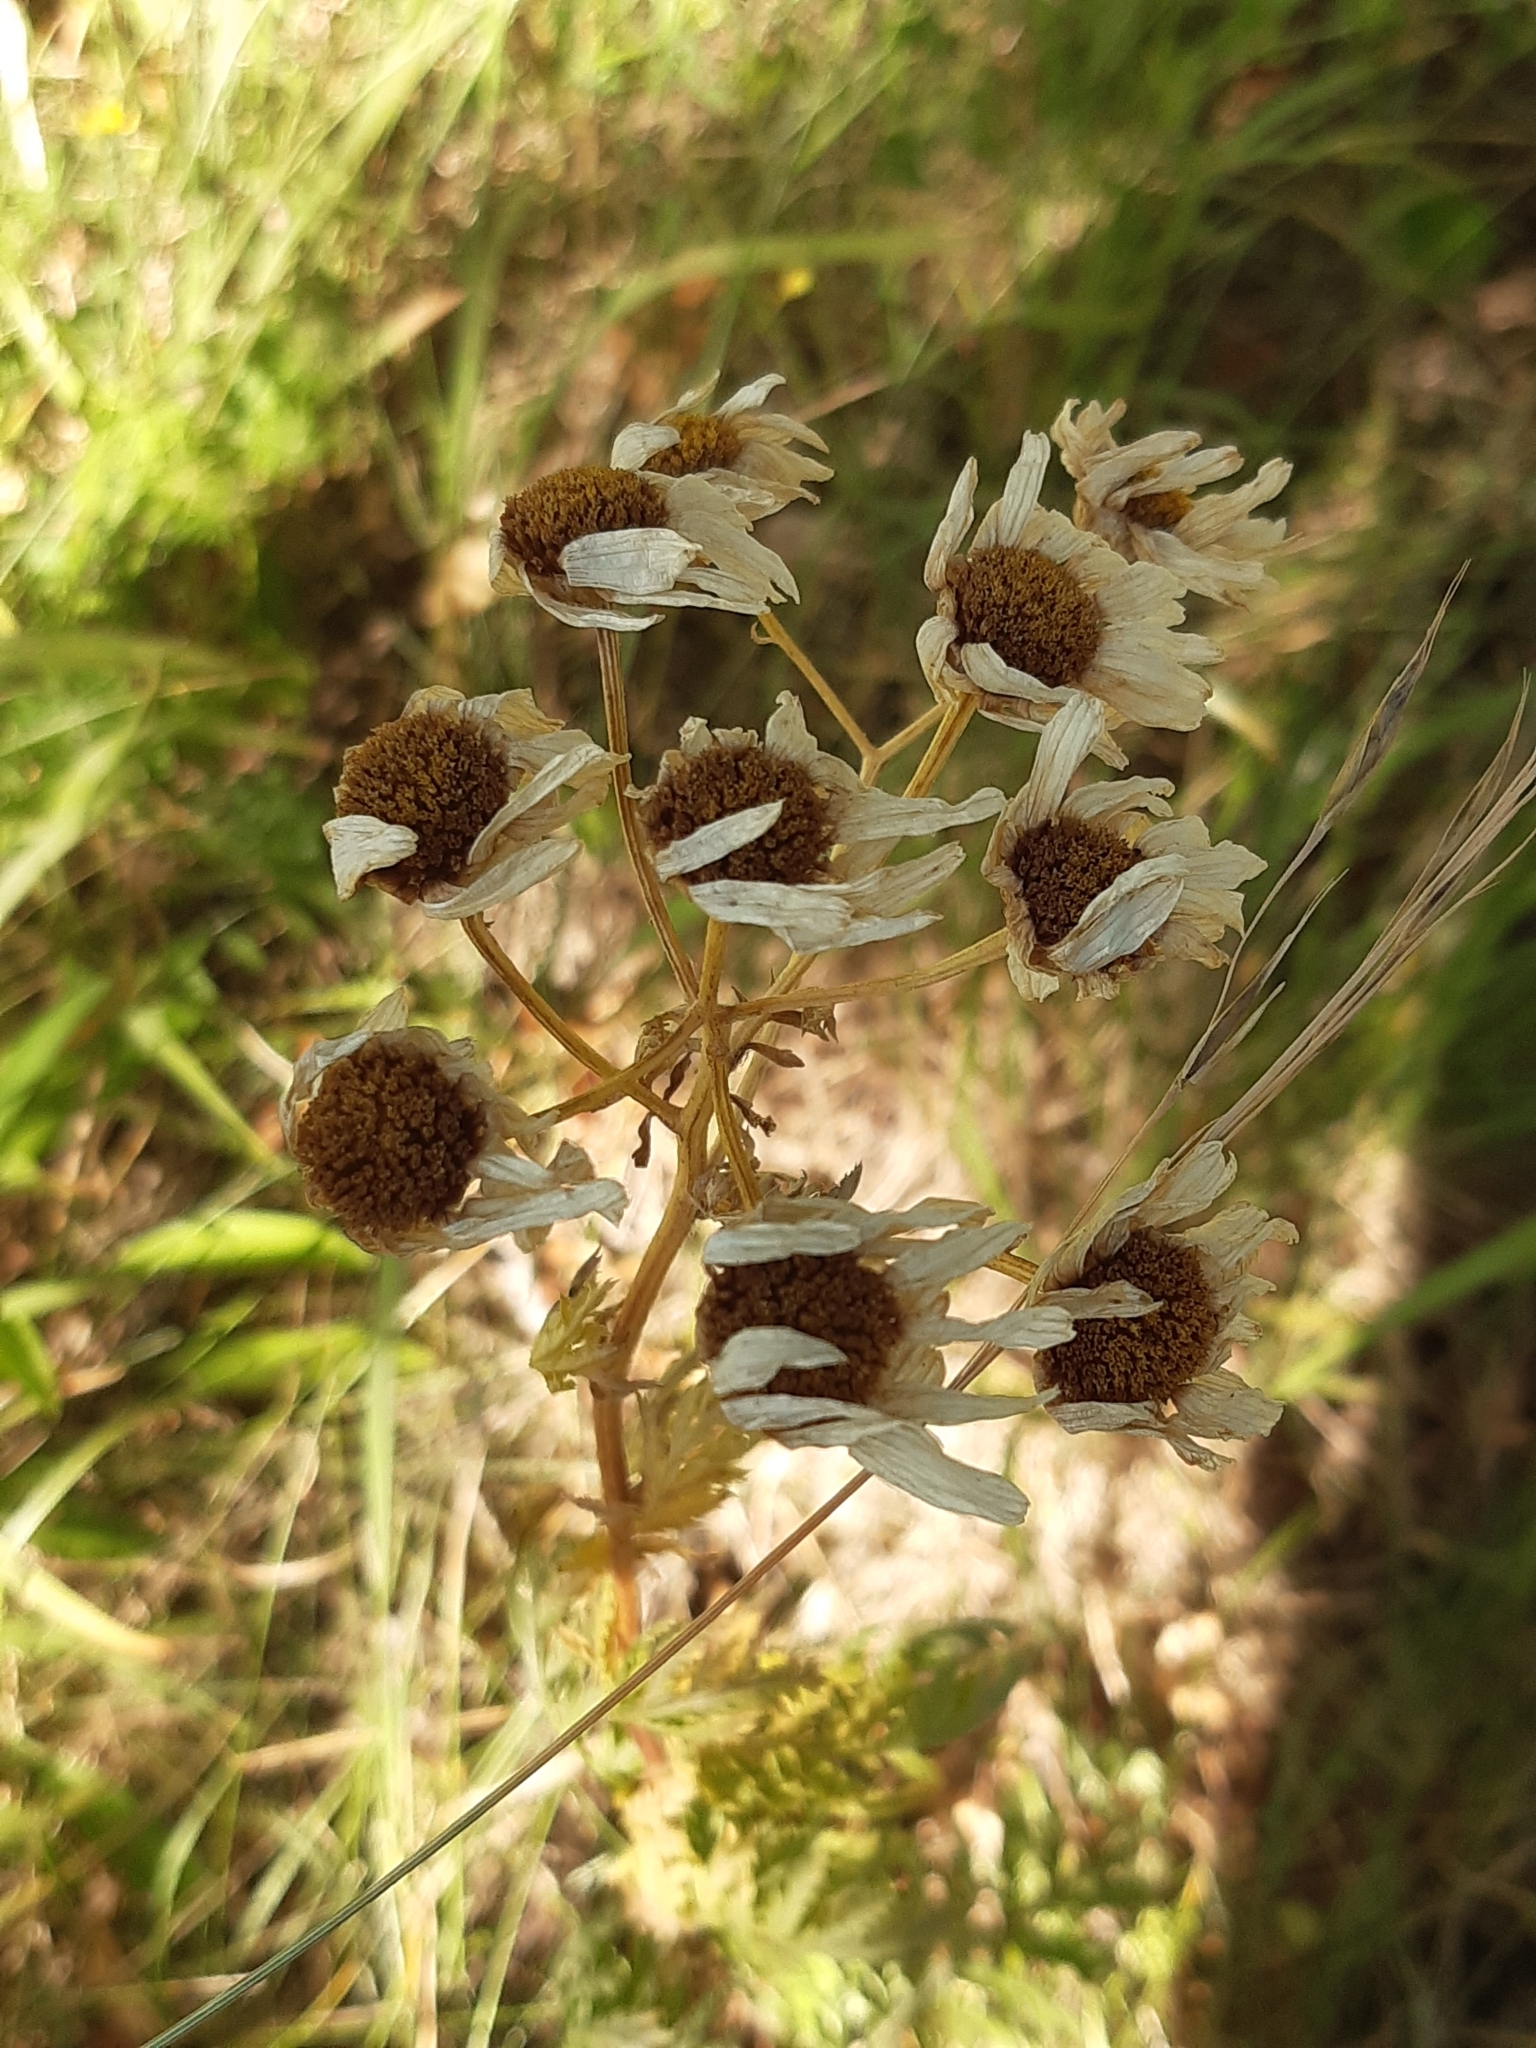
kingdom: Plantae
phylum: Tracheophyta
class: Magnoliopsida
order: Asterales
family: Asteraceae
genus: Tanacetum
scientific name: Tanacetum corymbosum
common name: Scentless feverfew
